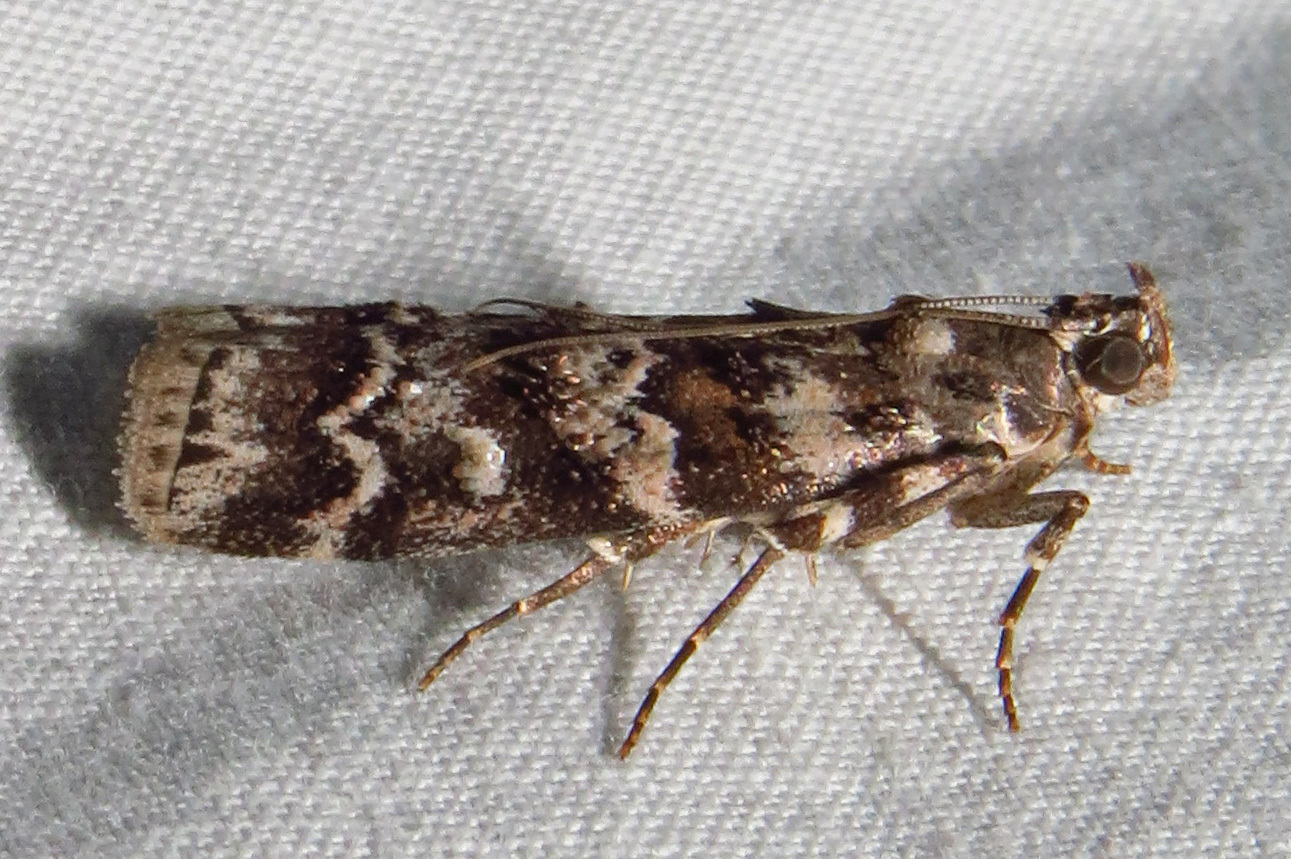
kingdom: Animalia
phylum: Arthropoda
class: Insecta
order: Lepidoptera
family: Pyralidae
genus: Dioryctria
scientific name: Dioryctria amatella
